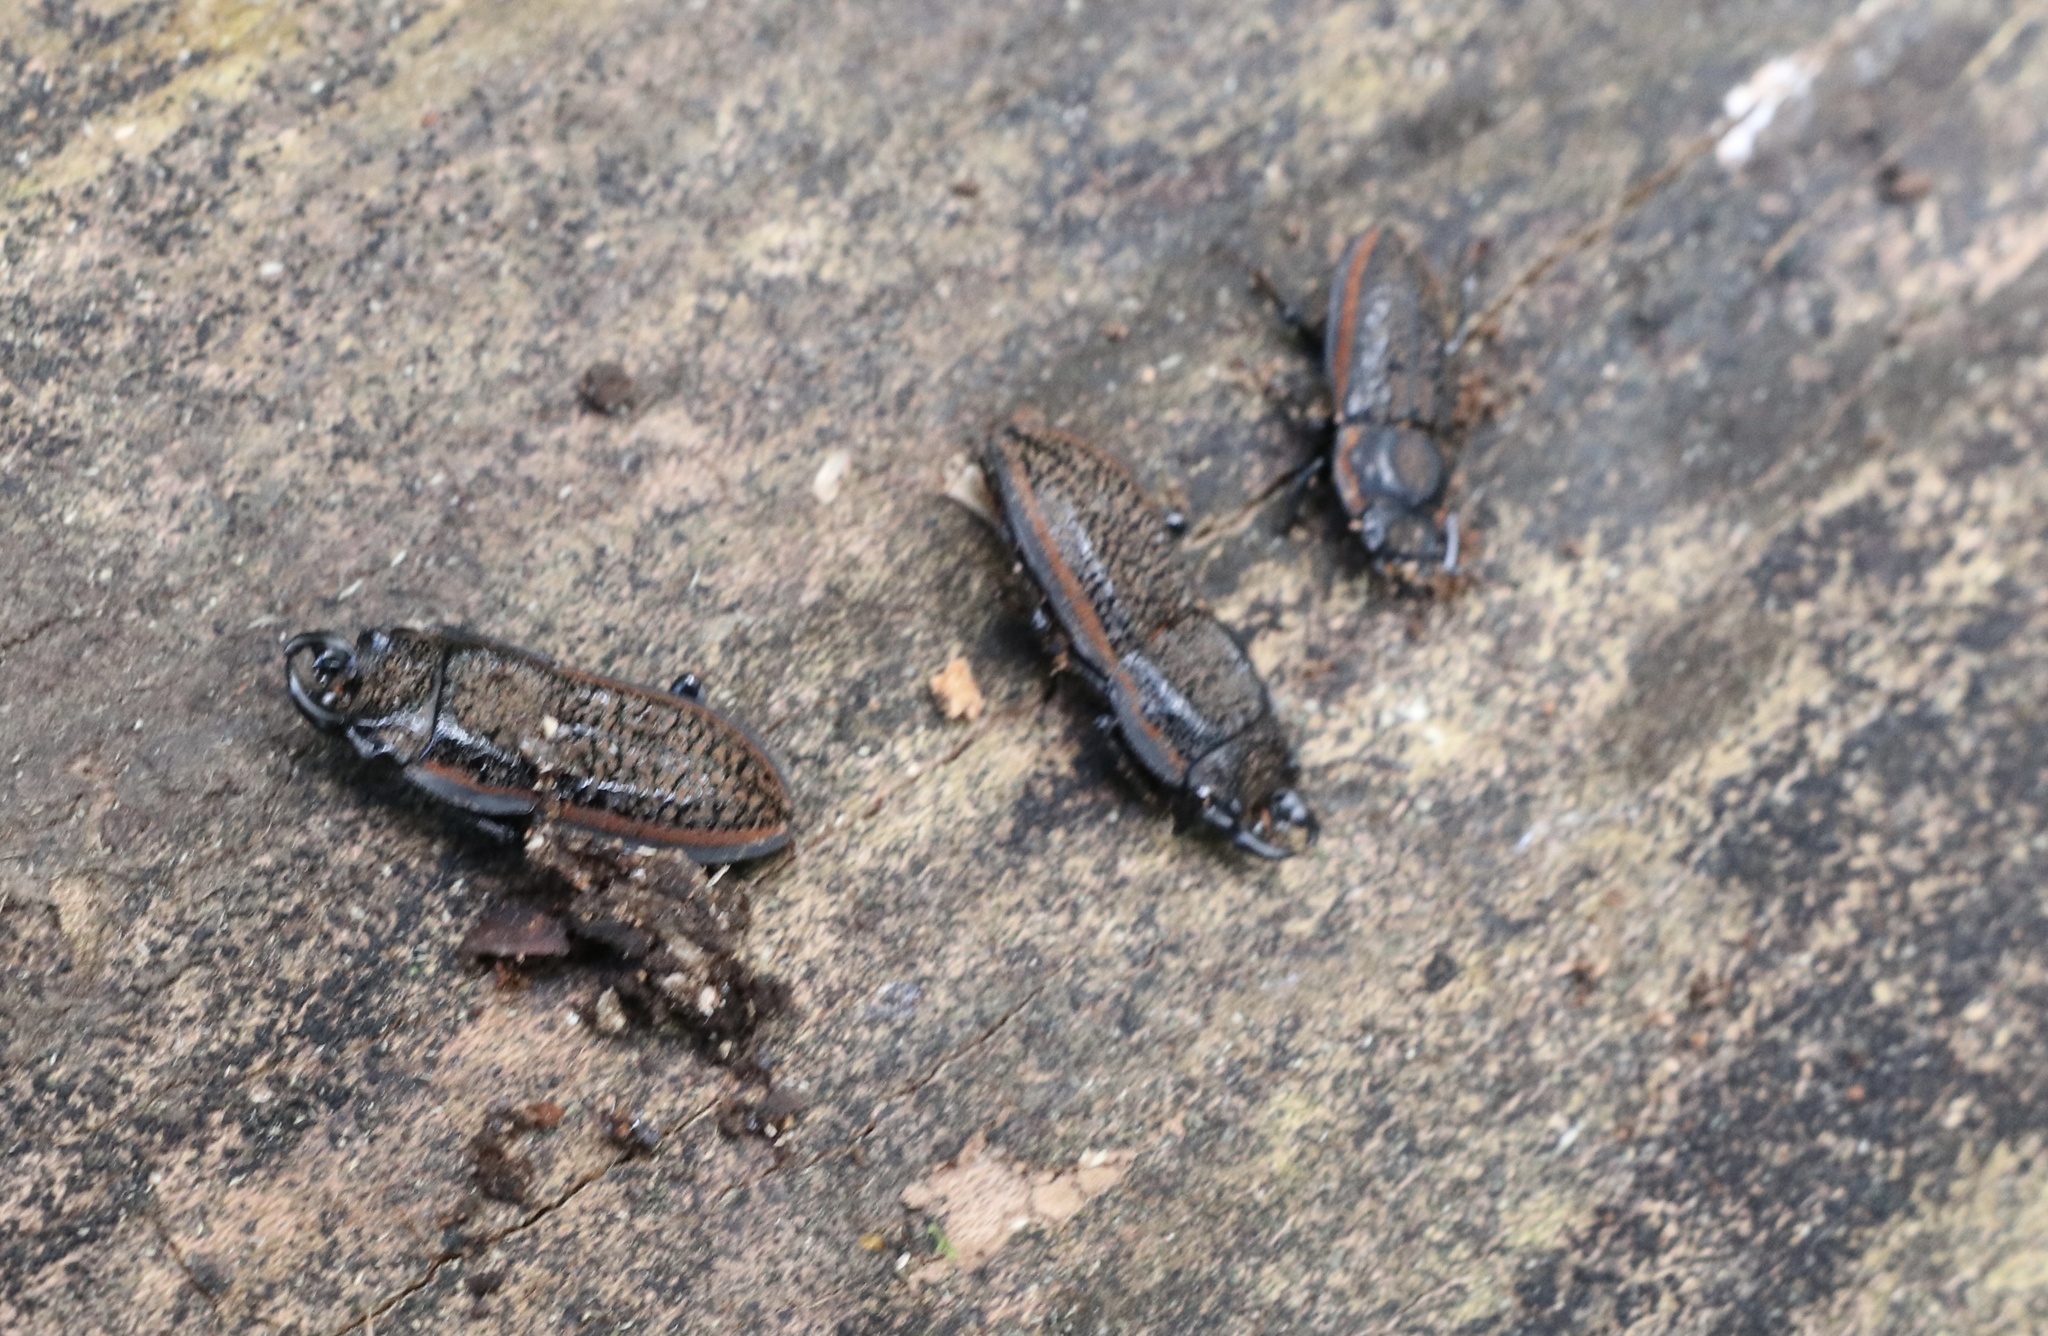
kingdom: Animalia
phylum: Arthropoda
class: Insecta
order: Coleoptera
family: Lucanidae
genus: Erichius
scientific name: Erichius caelatus
